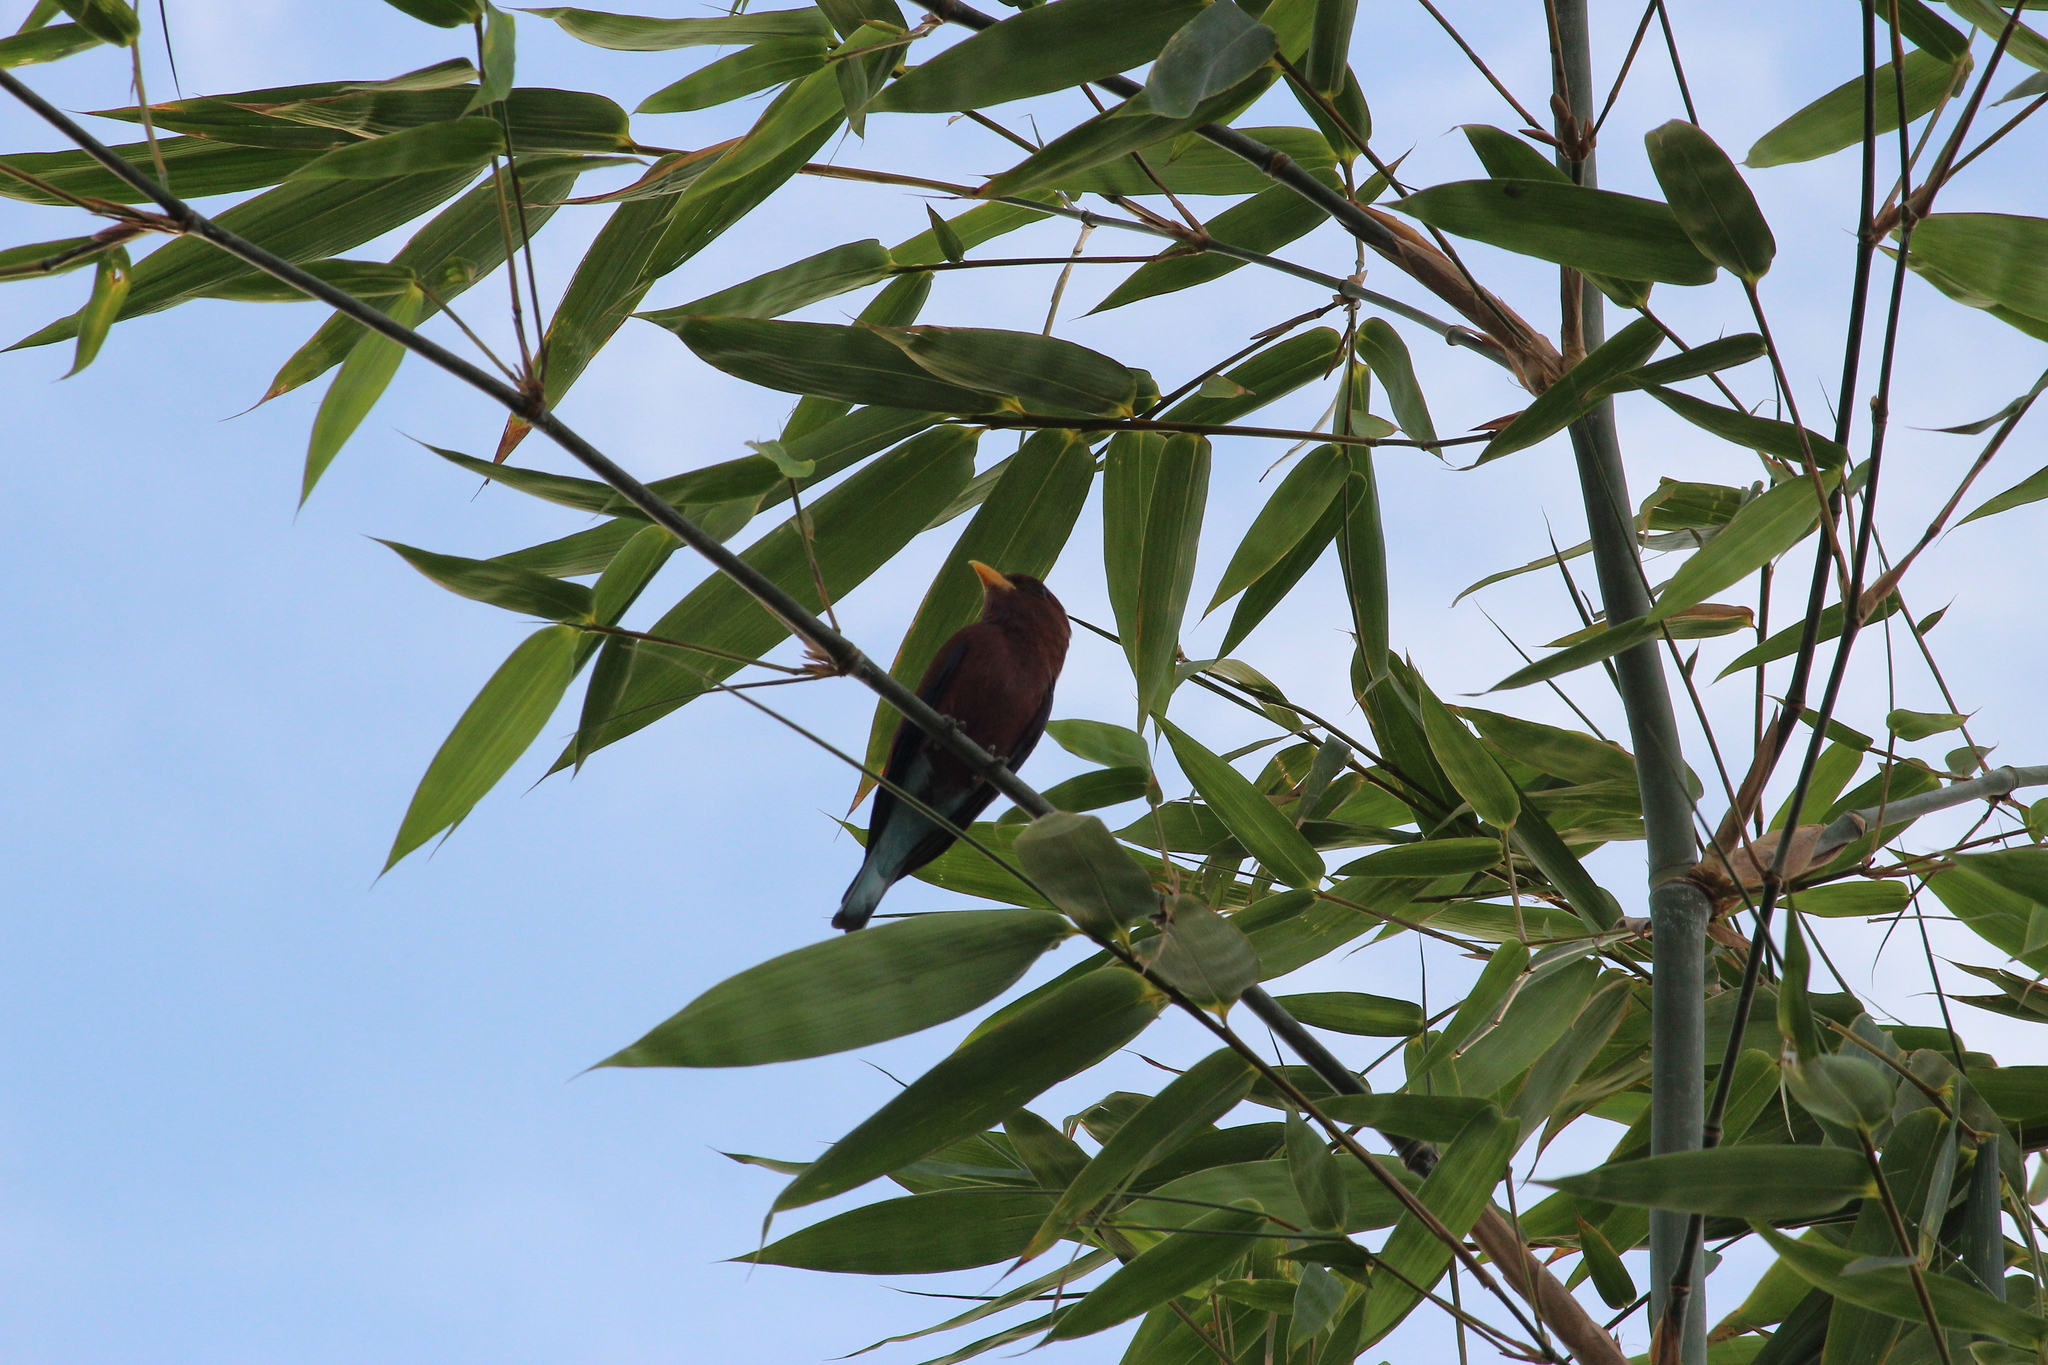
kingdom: Animalia
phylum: Chordata
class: Aves
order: Coraciiformes
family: Coraciidae
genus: Eurystomus
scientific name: Eurystomus glaucurus
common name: Broad-billed roller
